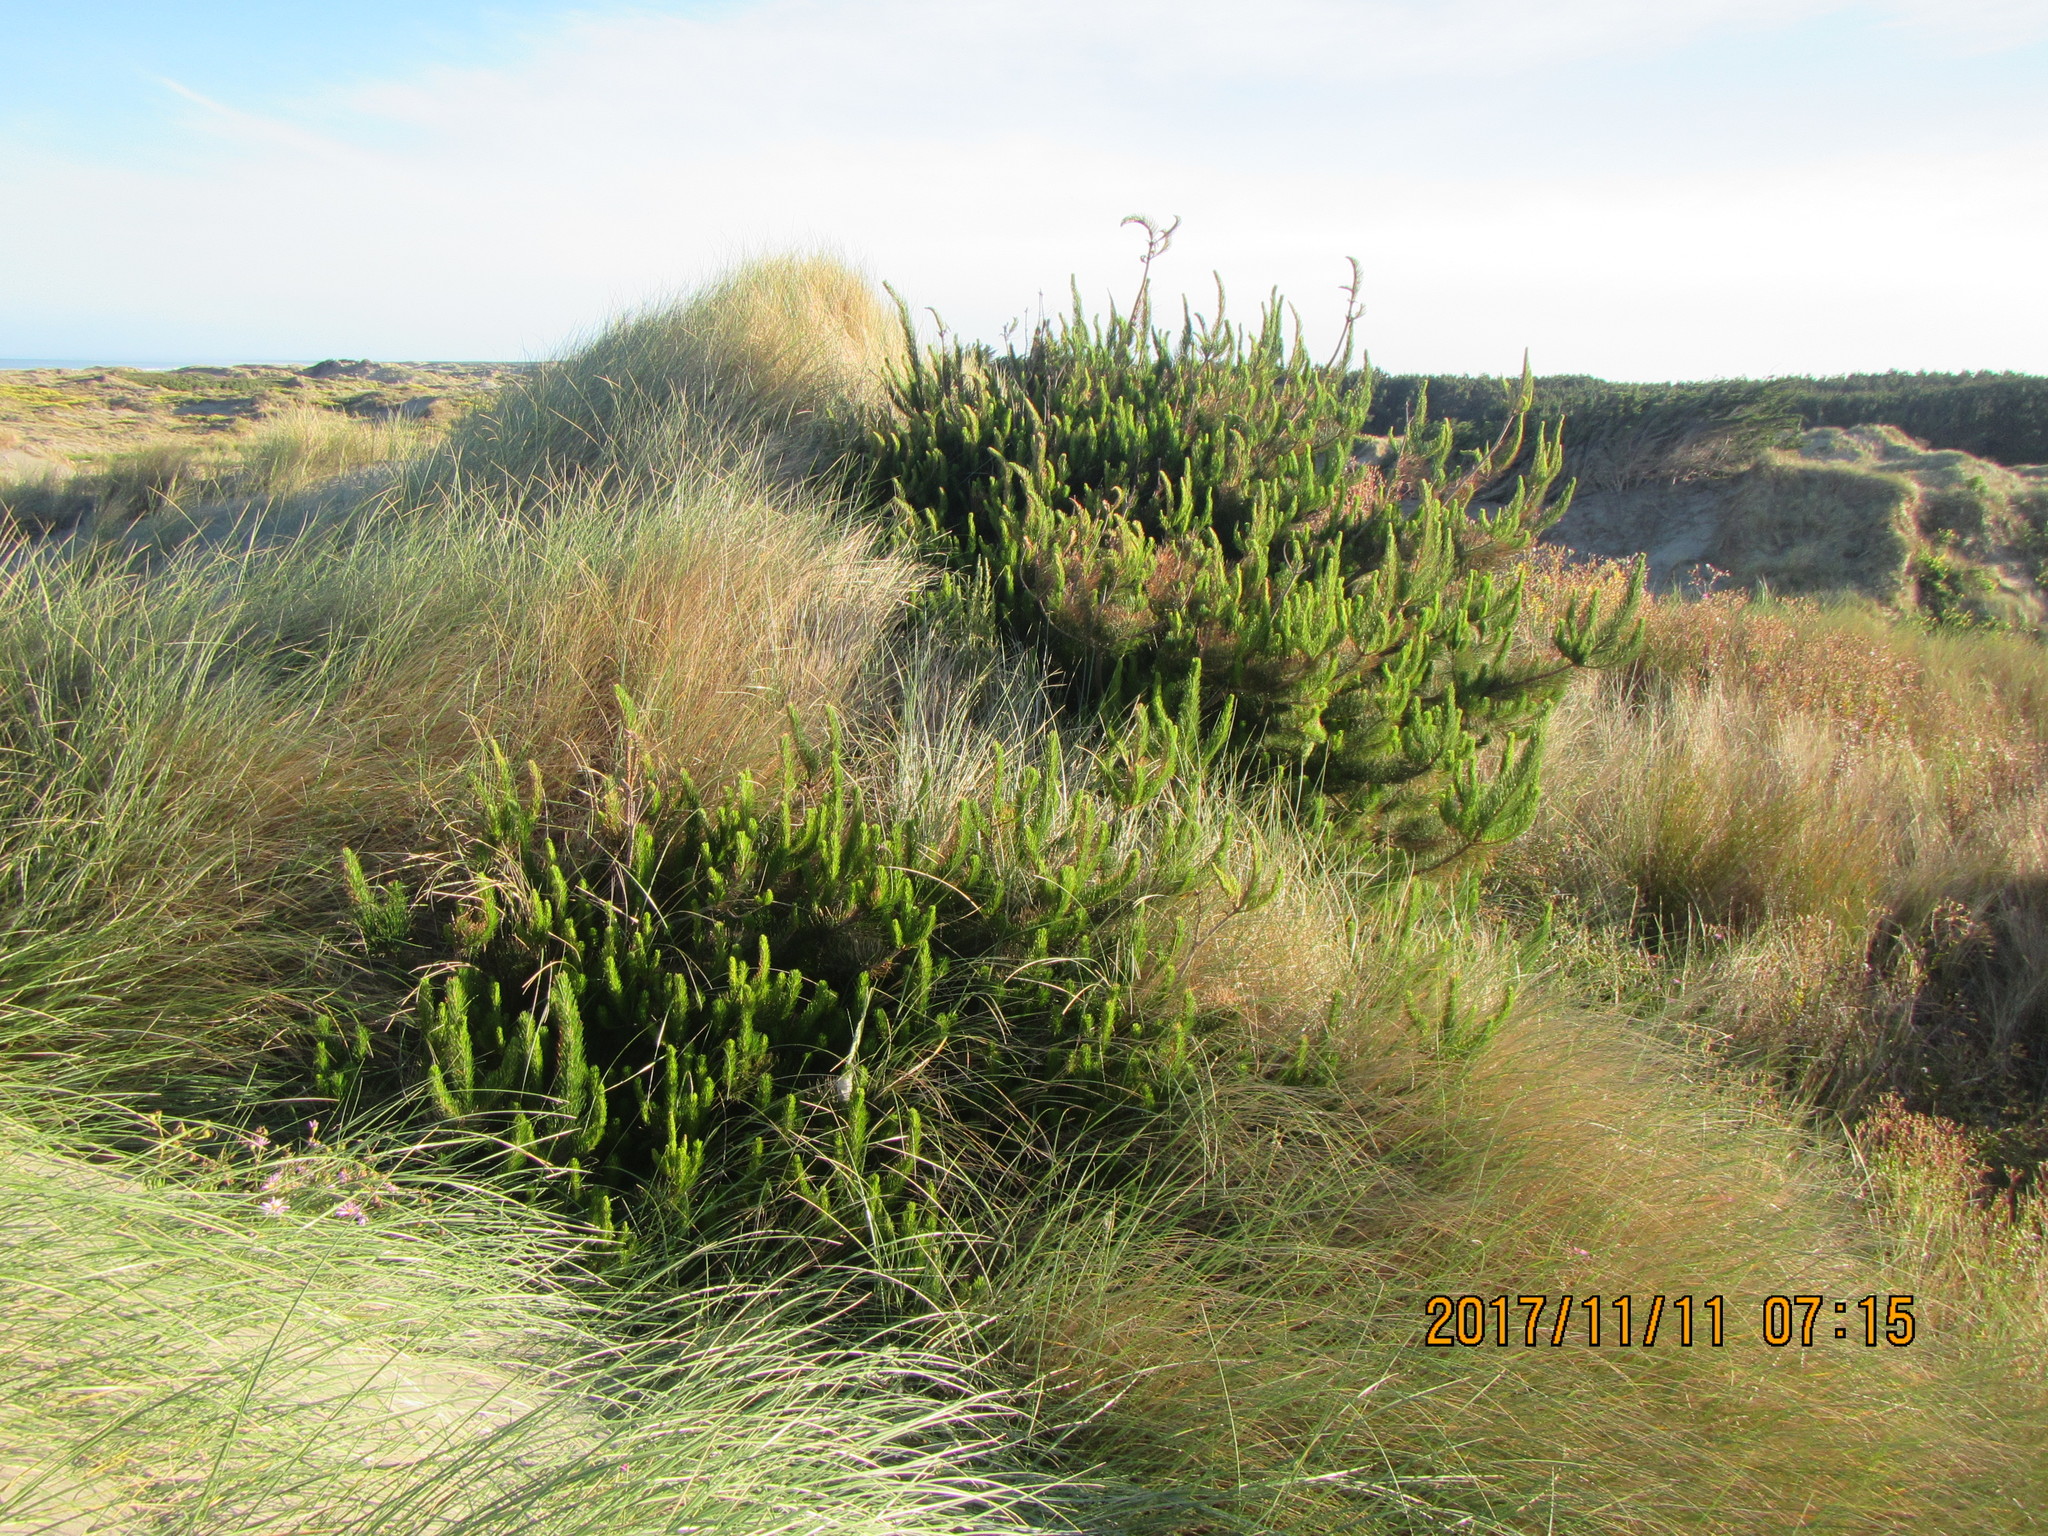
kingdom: Plantae
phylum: Tracheophyta
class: Pinopsida
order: Pinales
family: Pinaceae
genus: Pinus
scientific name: Pinus radiata
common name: Monterey pine
